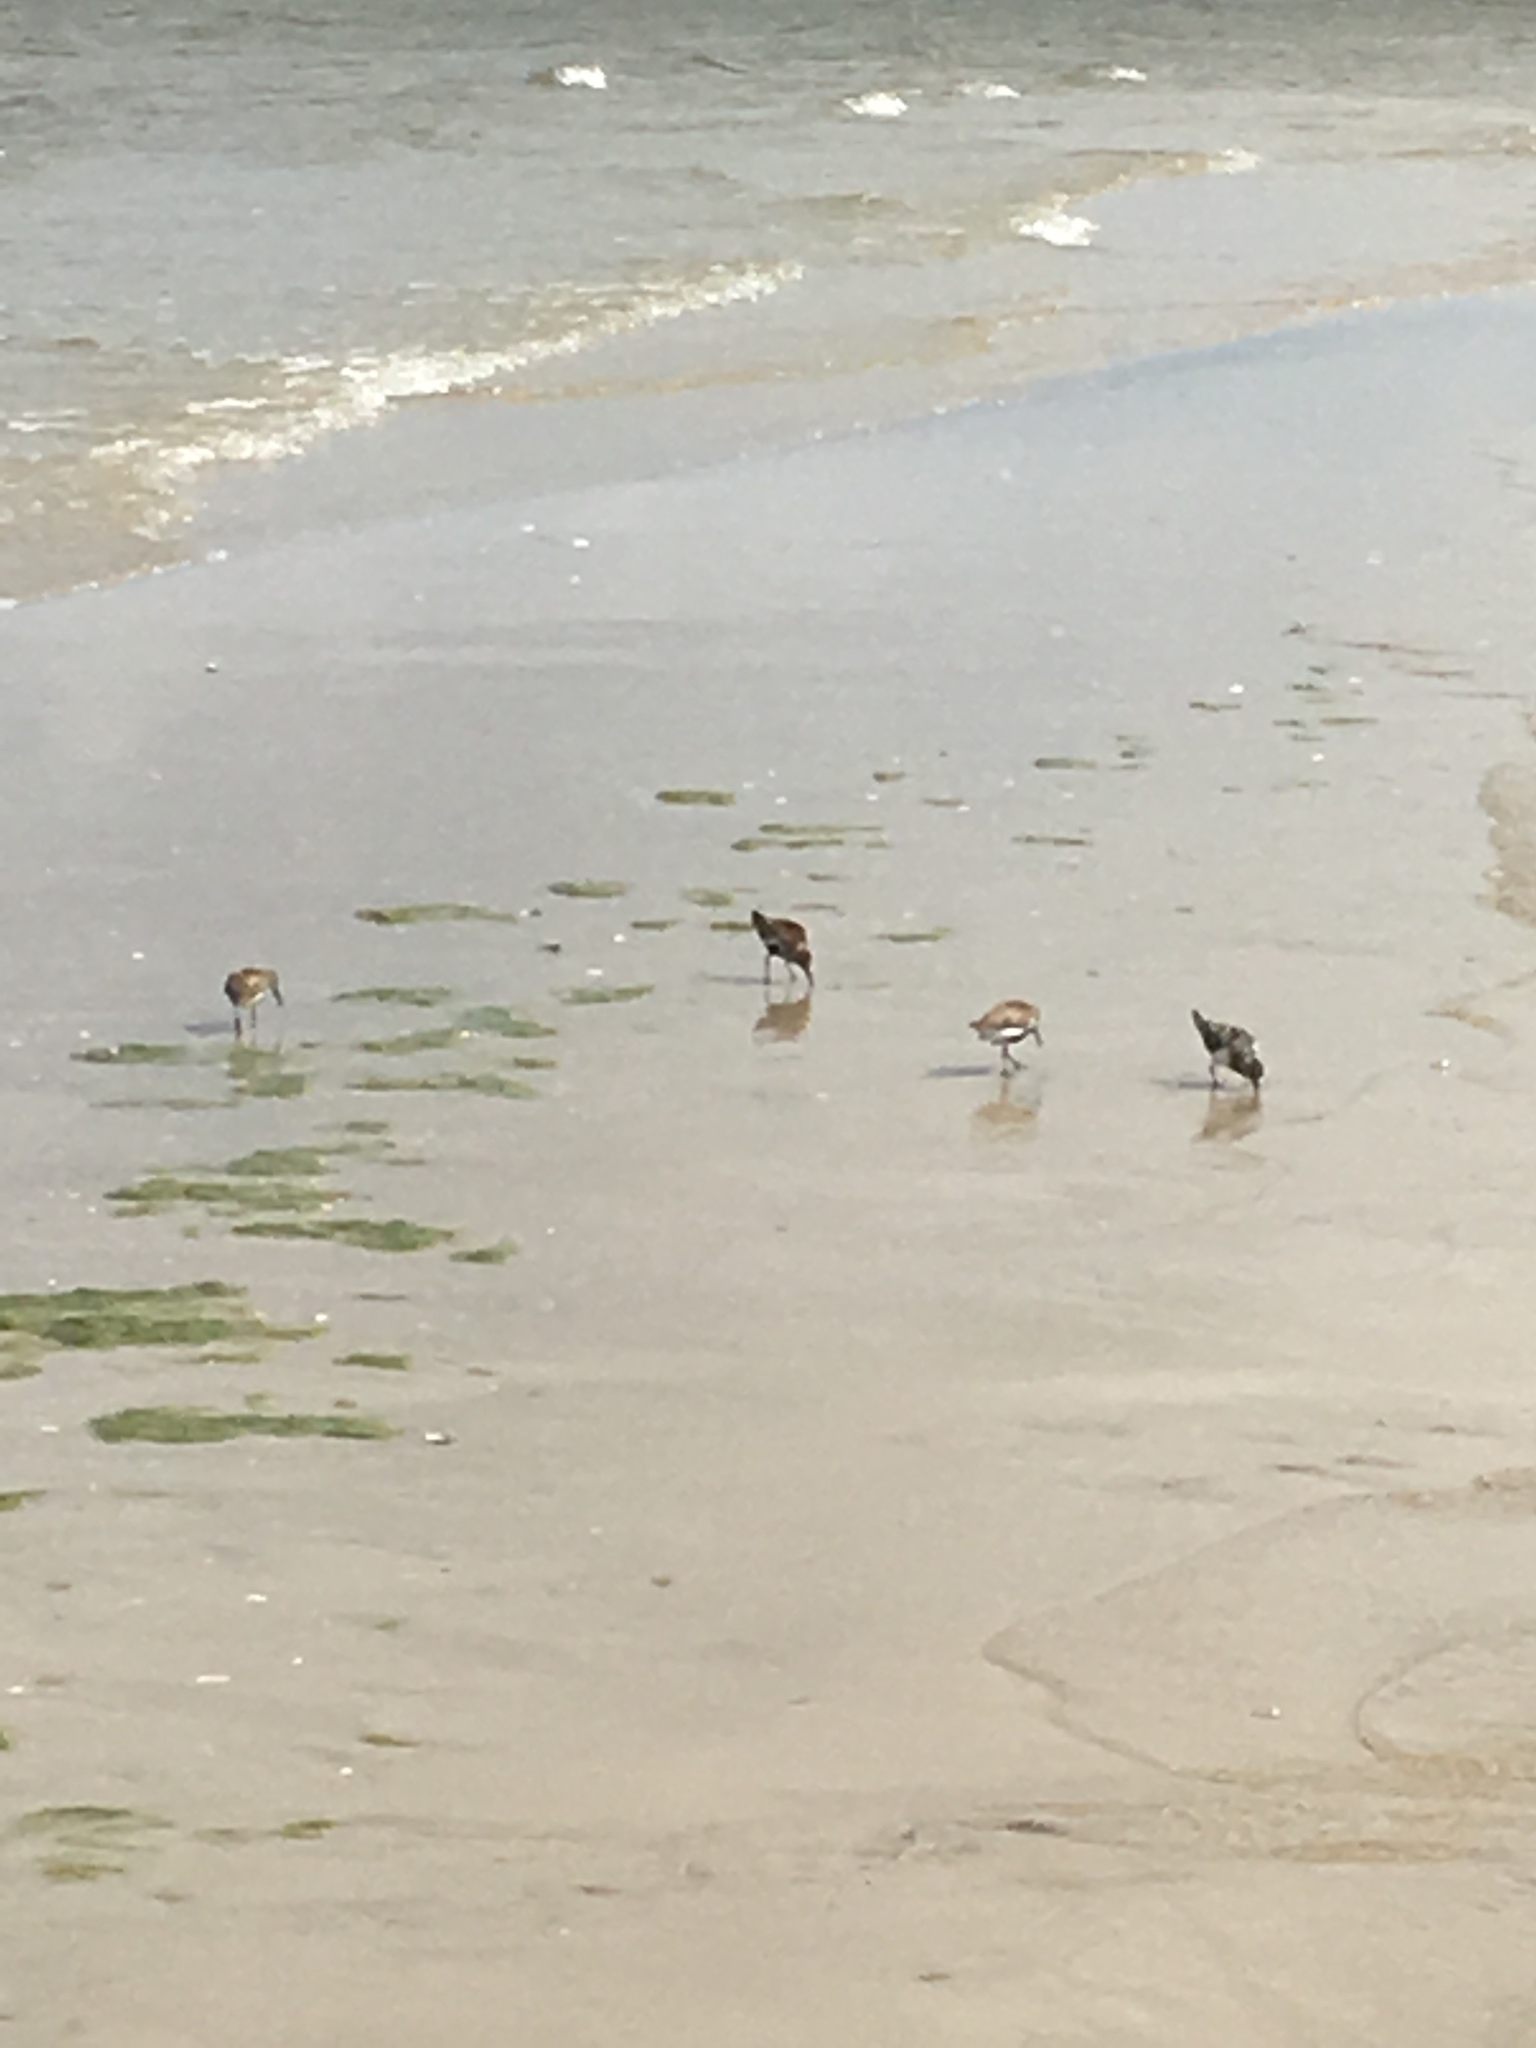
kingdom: Animalia
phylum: Chordata
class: Aves
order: Charadriiformes
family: Scolopacidae
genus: Calidris
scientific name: Calidris alpina
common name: Dunlin
